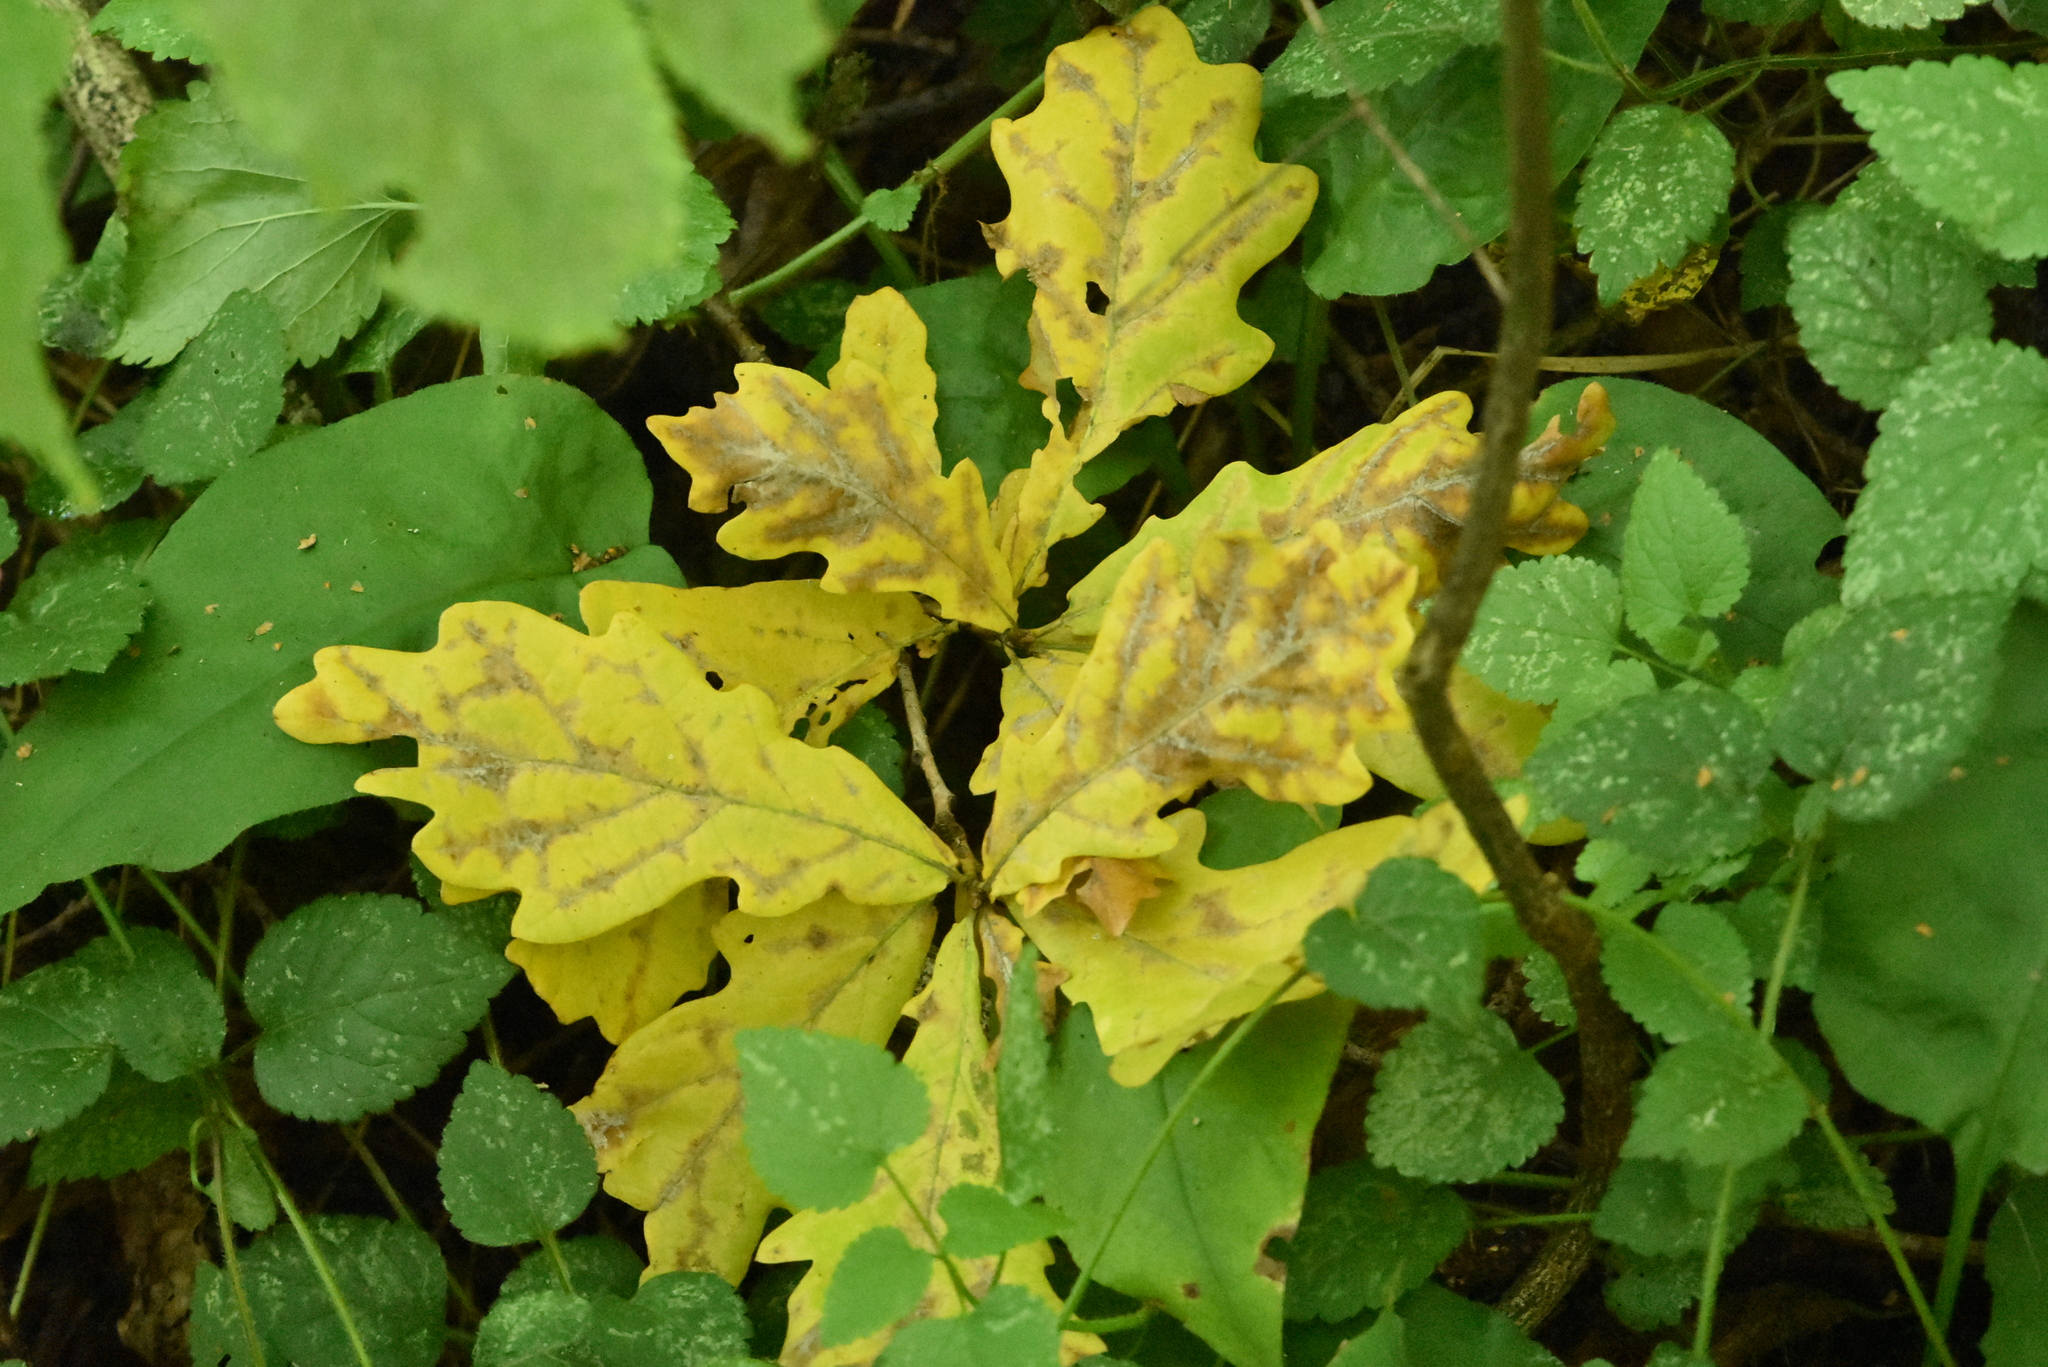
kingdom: Plantae
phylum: Tracheophyta
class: Magnoliopsida
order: Fagales
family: Fagaceae
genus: Quercus
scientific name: Quercus robur
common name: Pedunculate oak
